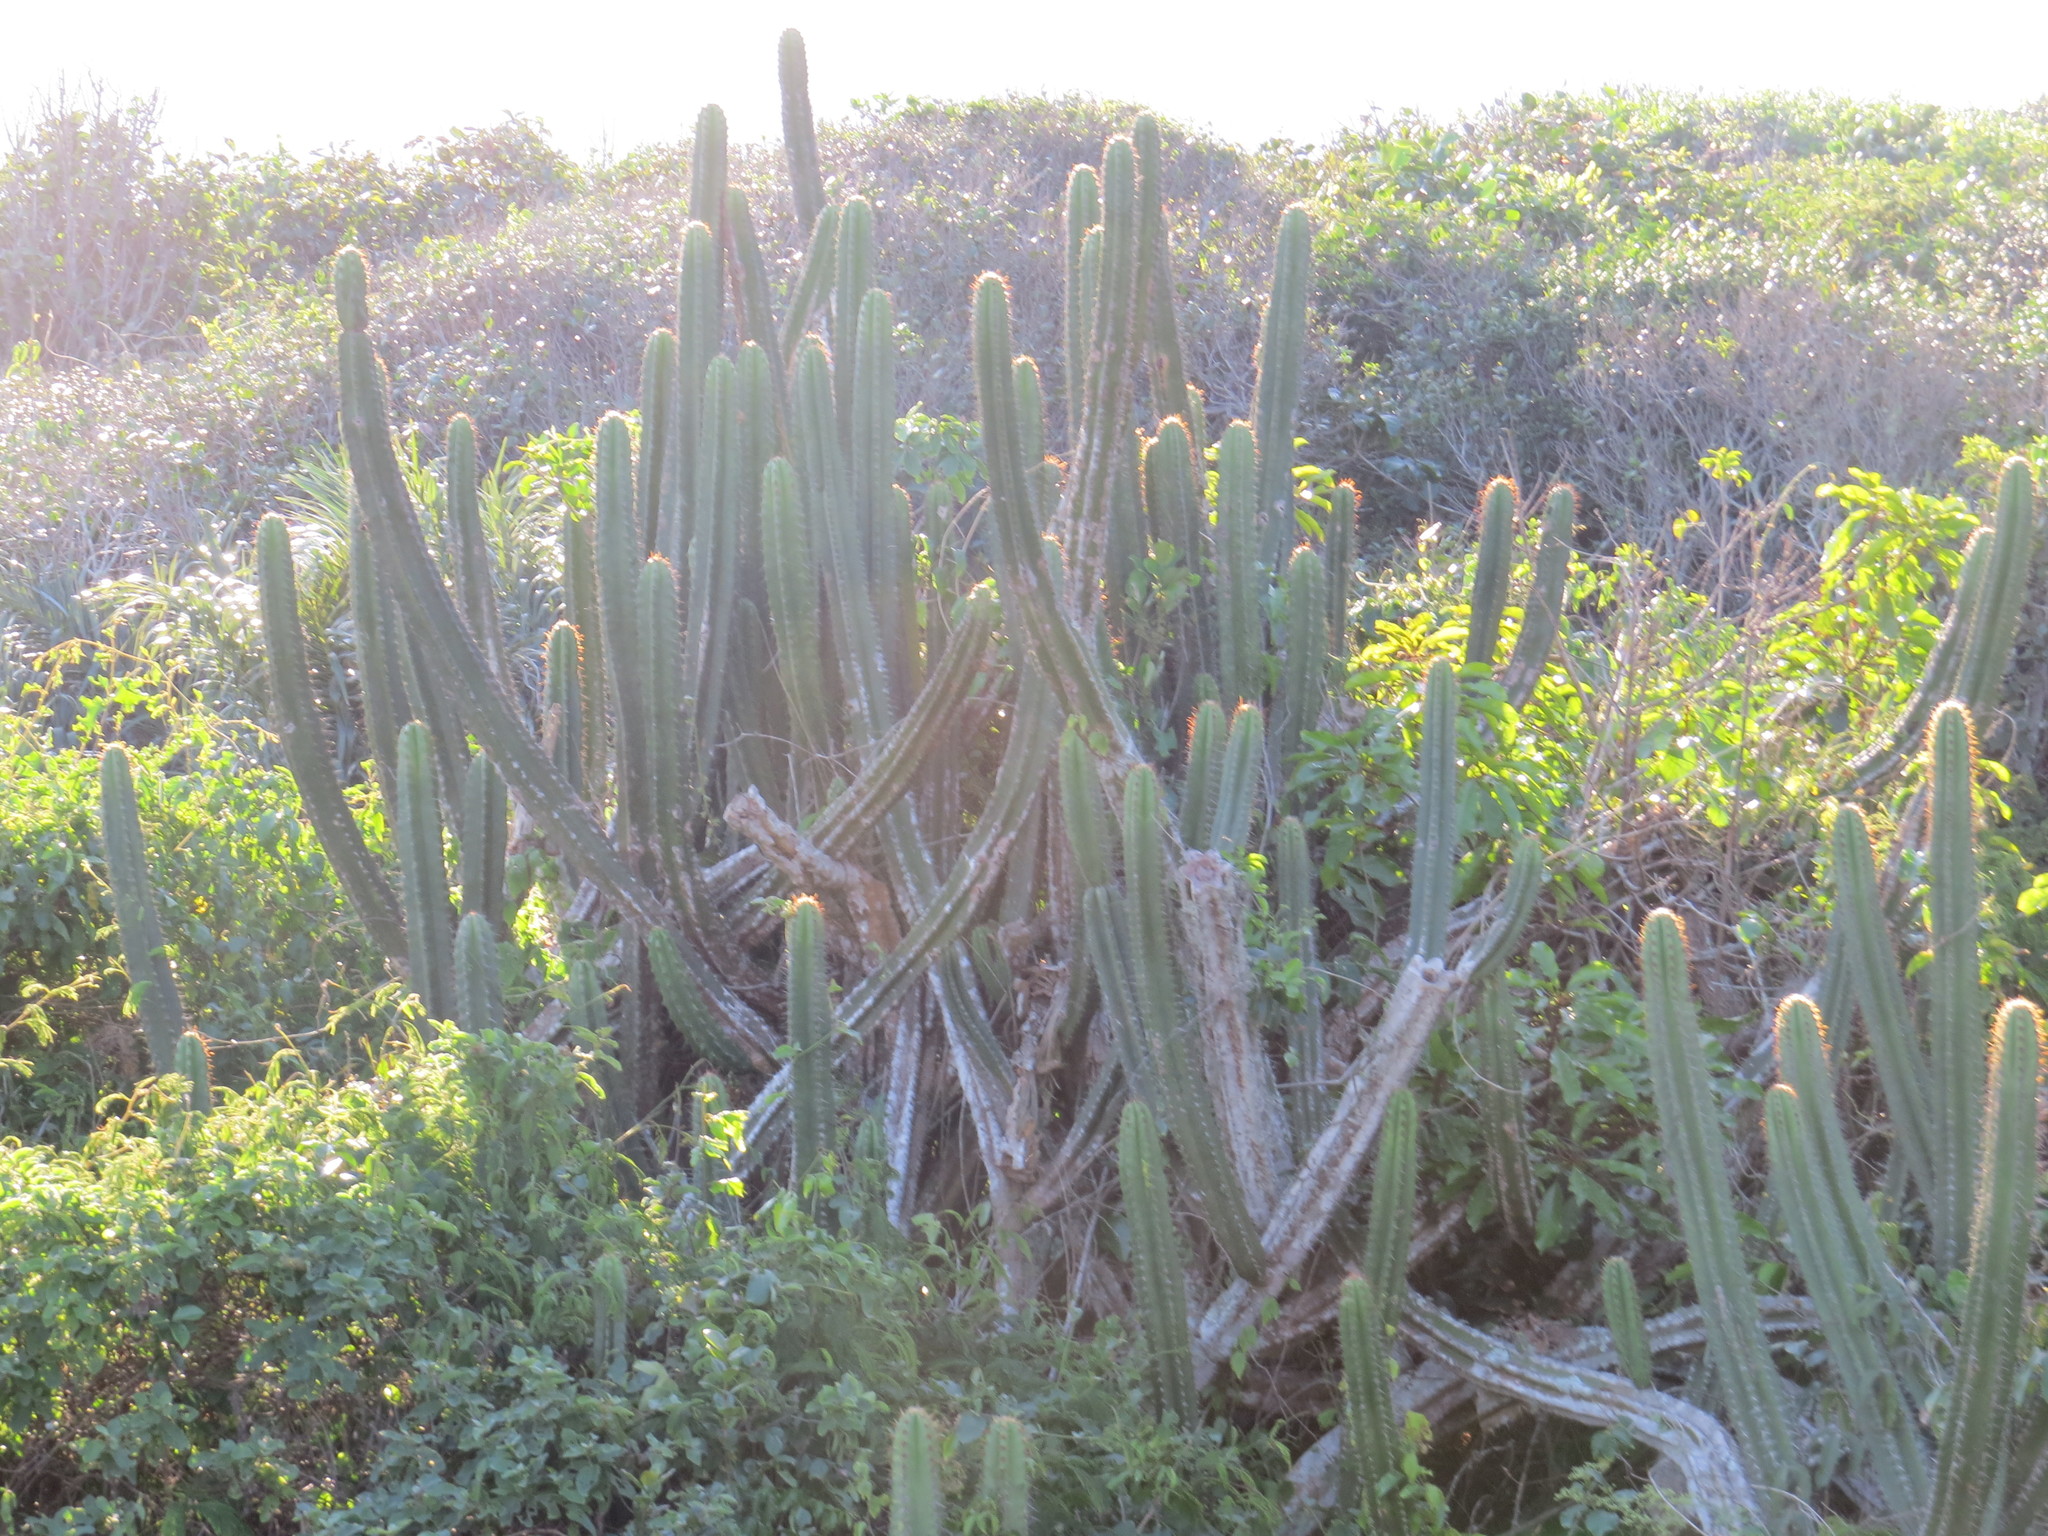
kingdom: Plantae
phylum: Tracheophyta
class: Magnoliopsida
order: Caryophyllales
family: Cactaceae
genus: Pilosocereus
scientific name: Pilosocereus arrabidae
